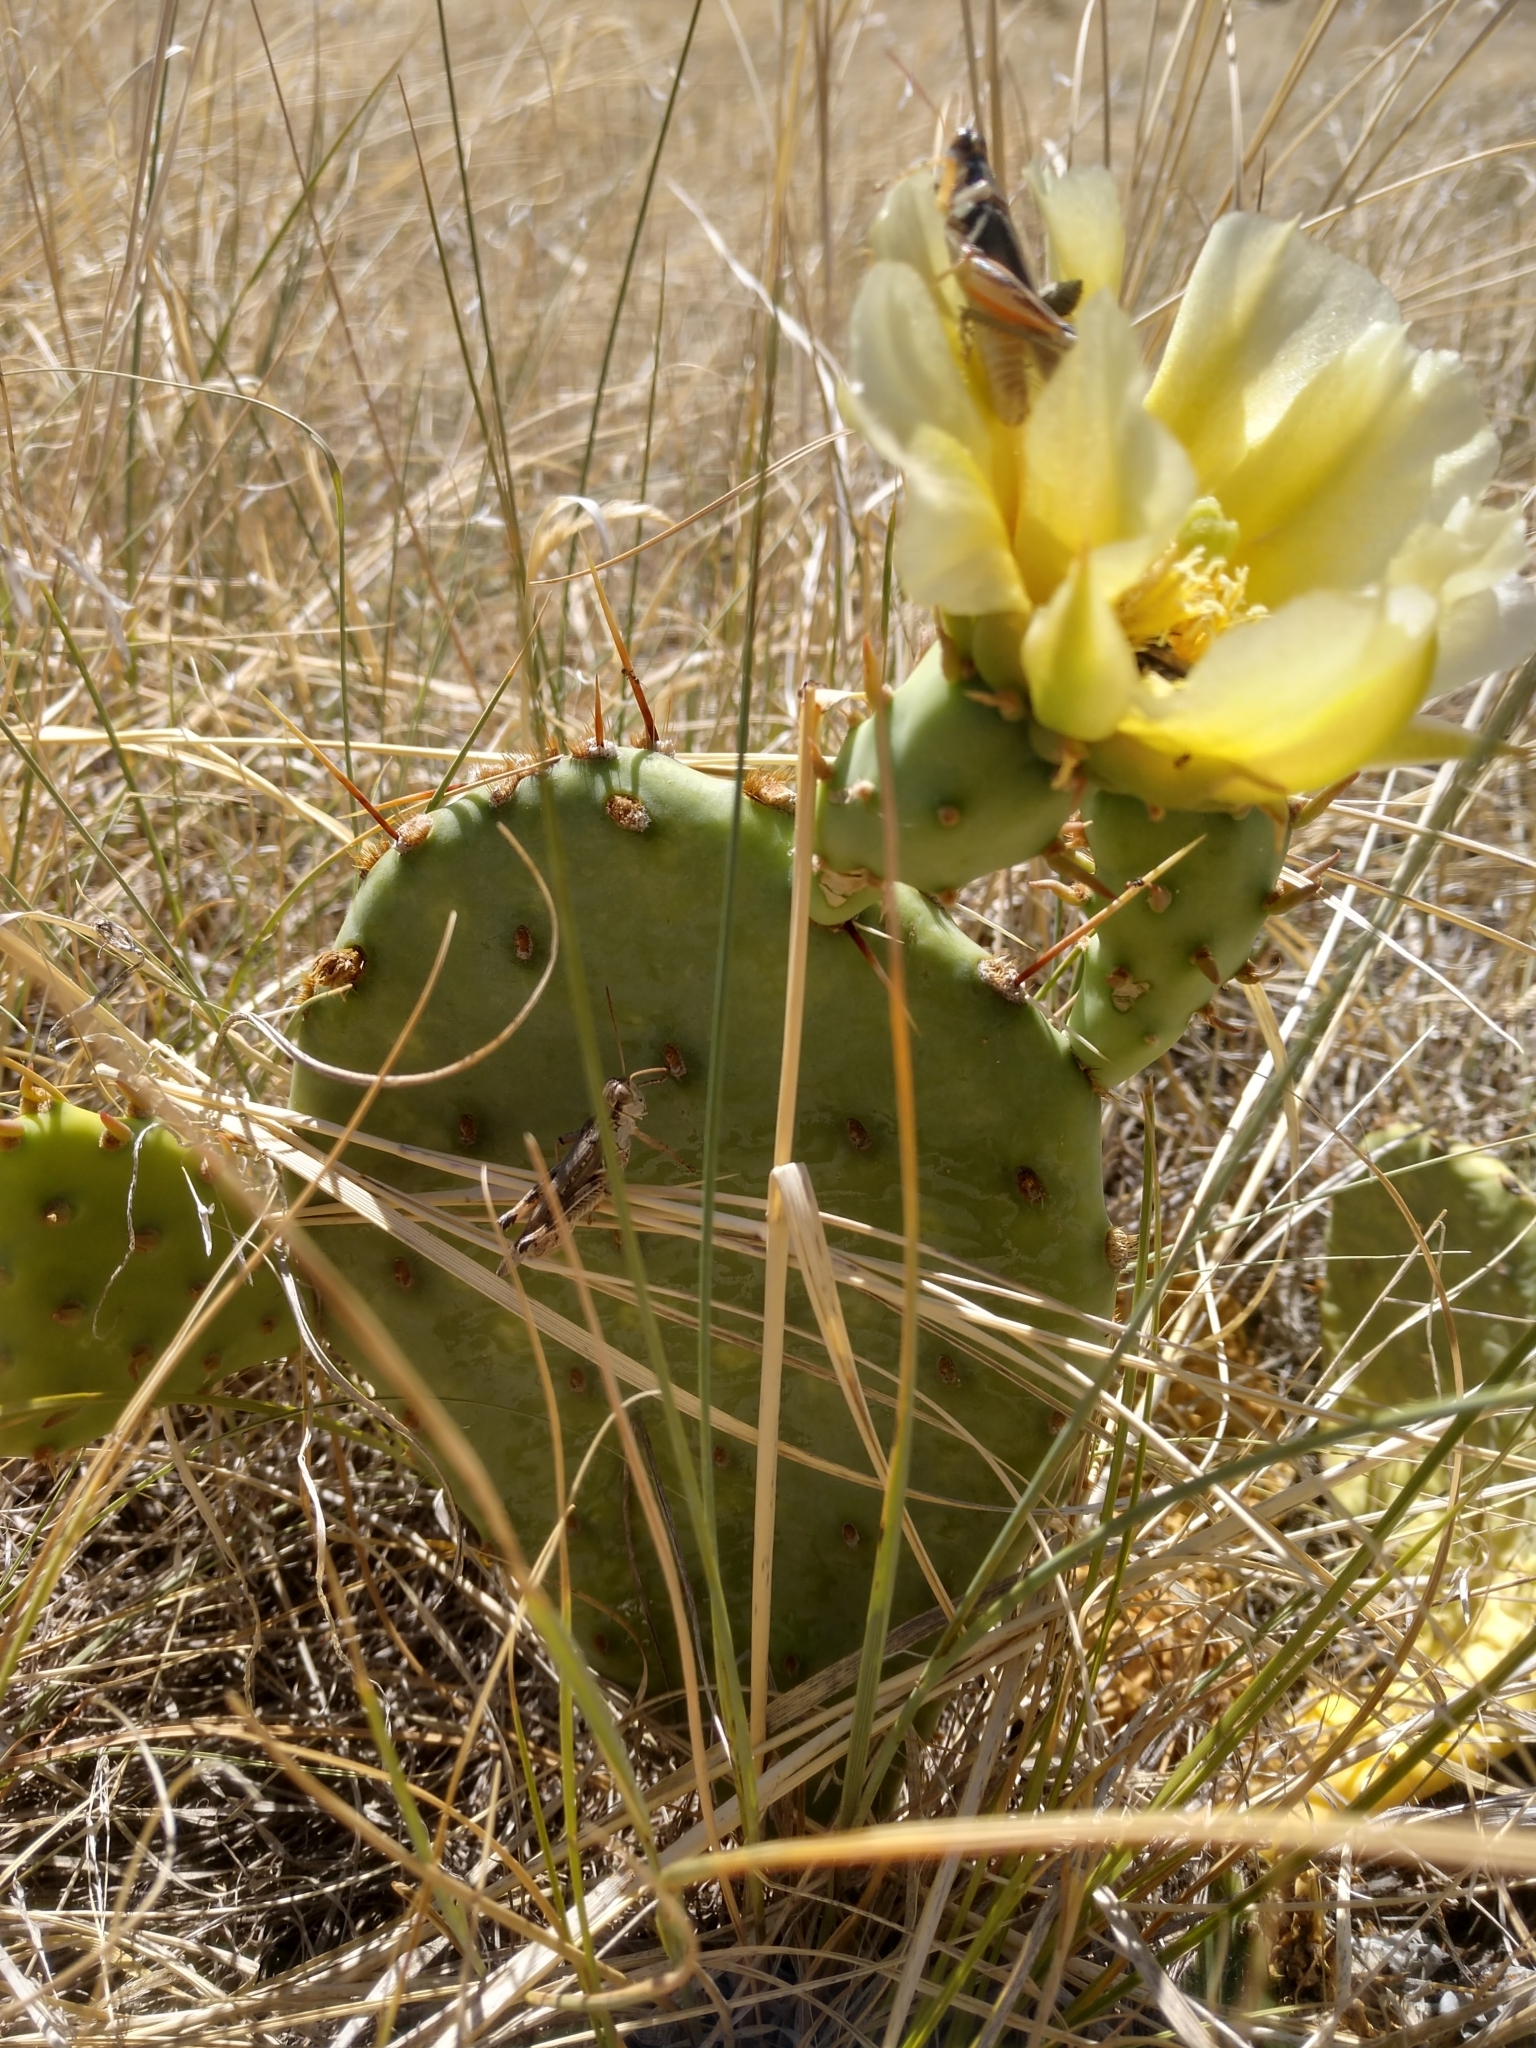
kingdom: Plantae
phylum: Tracheophyta
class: Magnoliopsida
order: Caryophyllales
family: Cactaceae
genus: Opuntia
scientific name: Opuntia macrorhiza
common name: Grassland pricklypear
